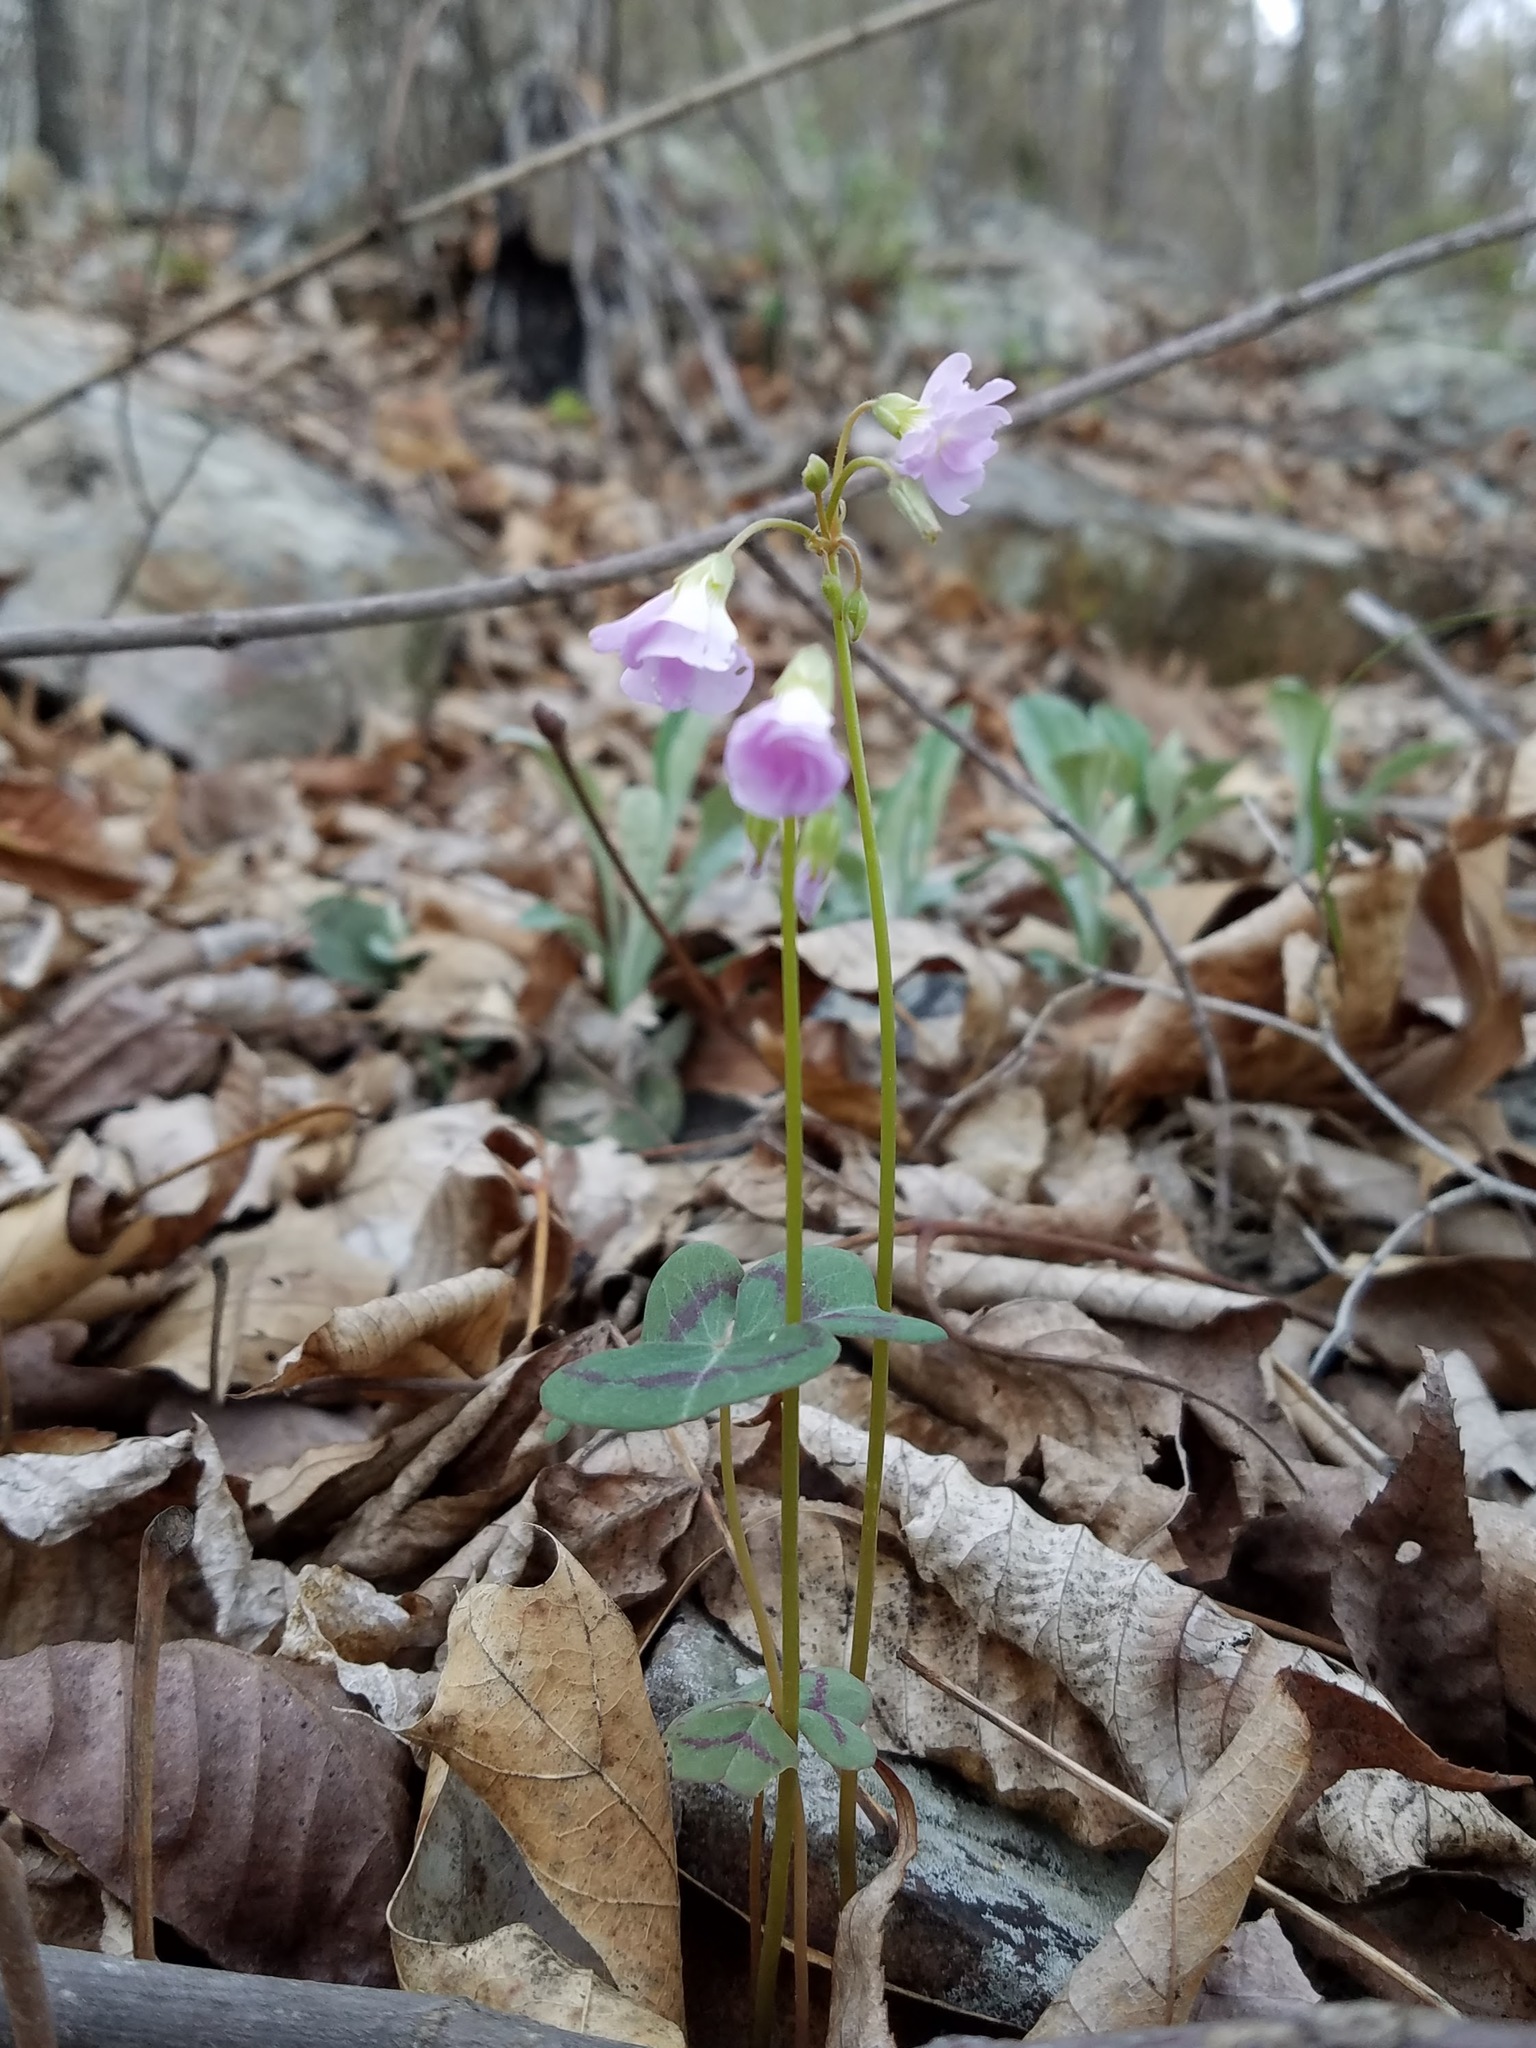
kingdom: Plantae
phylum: Tracheophyta
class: Magnoliopsida
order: Oxalidales
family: Oxalidaceae
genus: Oxalis
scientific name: Oxalis violacea
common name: Violet wood-sorrel
